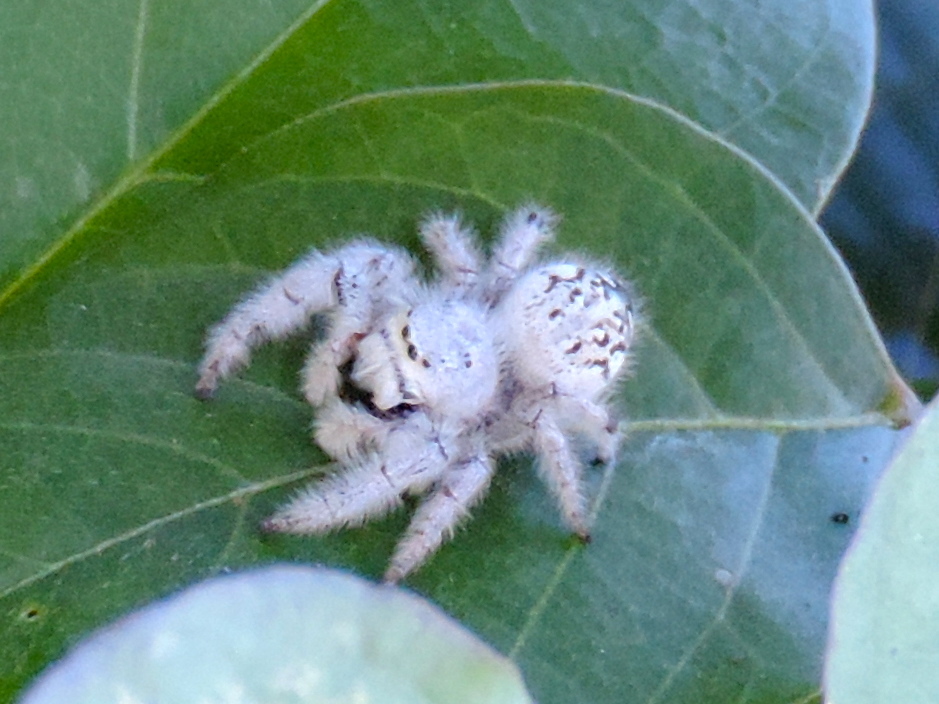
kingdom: Animalia
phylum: Arthropoda
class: Arachnida
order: Araneae
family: Salticidae
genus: Paraphidippus
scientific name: Paraphidippus fartilis
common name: Jumping spiders
